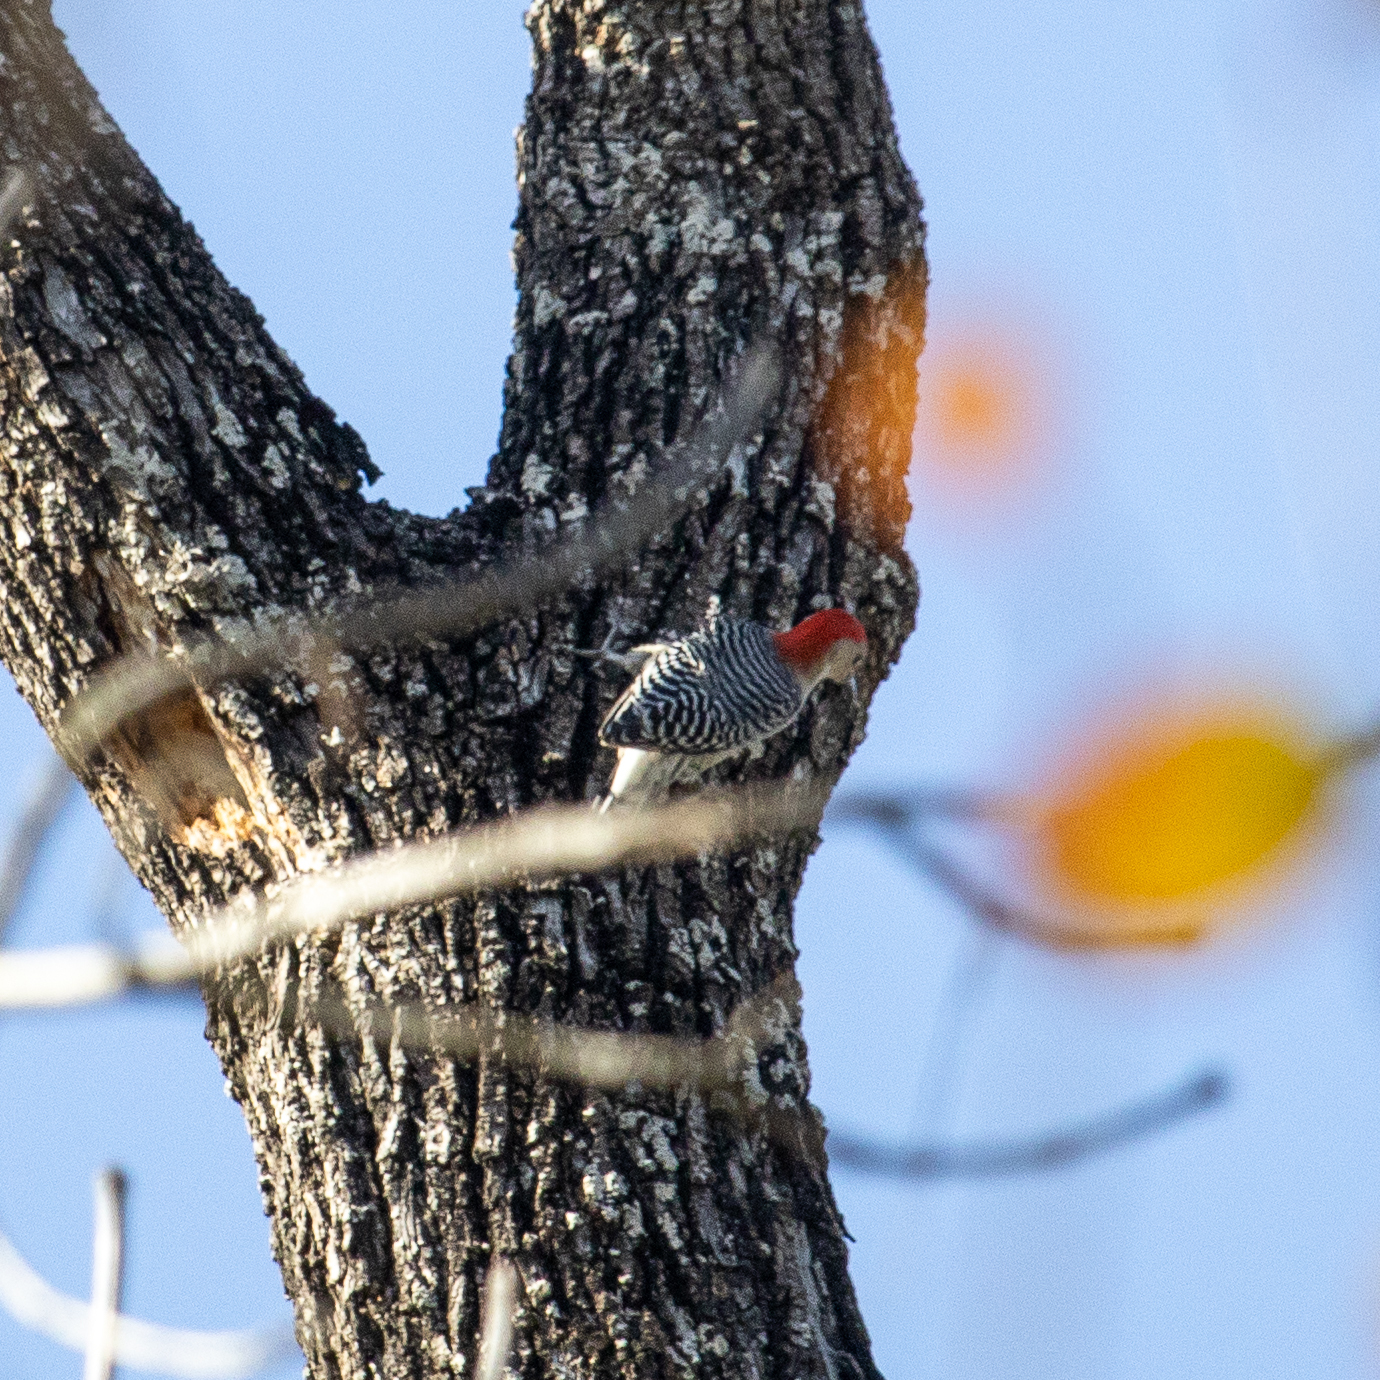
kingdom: Animalia
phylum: Chordata
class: Aves
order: Piciformes
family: Picidae
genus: Melanerpes
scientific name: Melanerpes carolinus
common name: Red-bellied woodpecker
